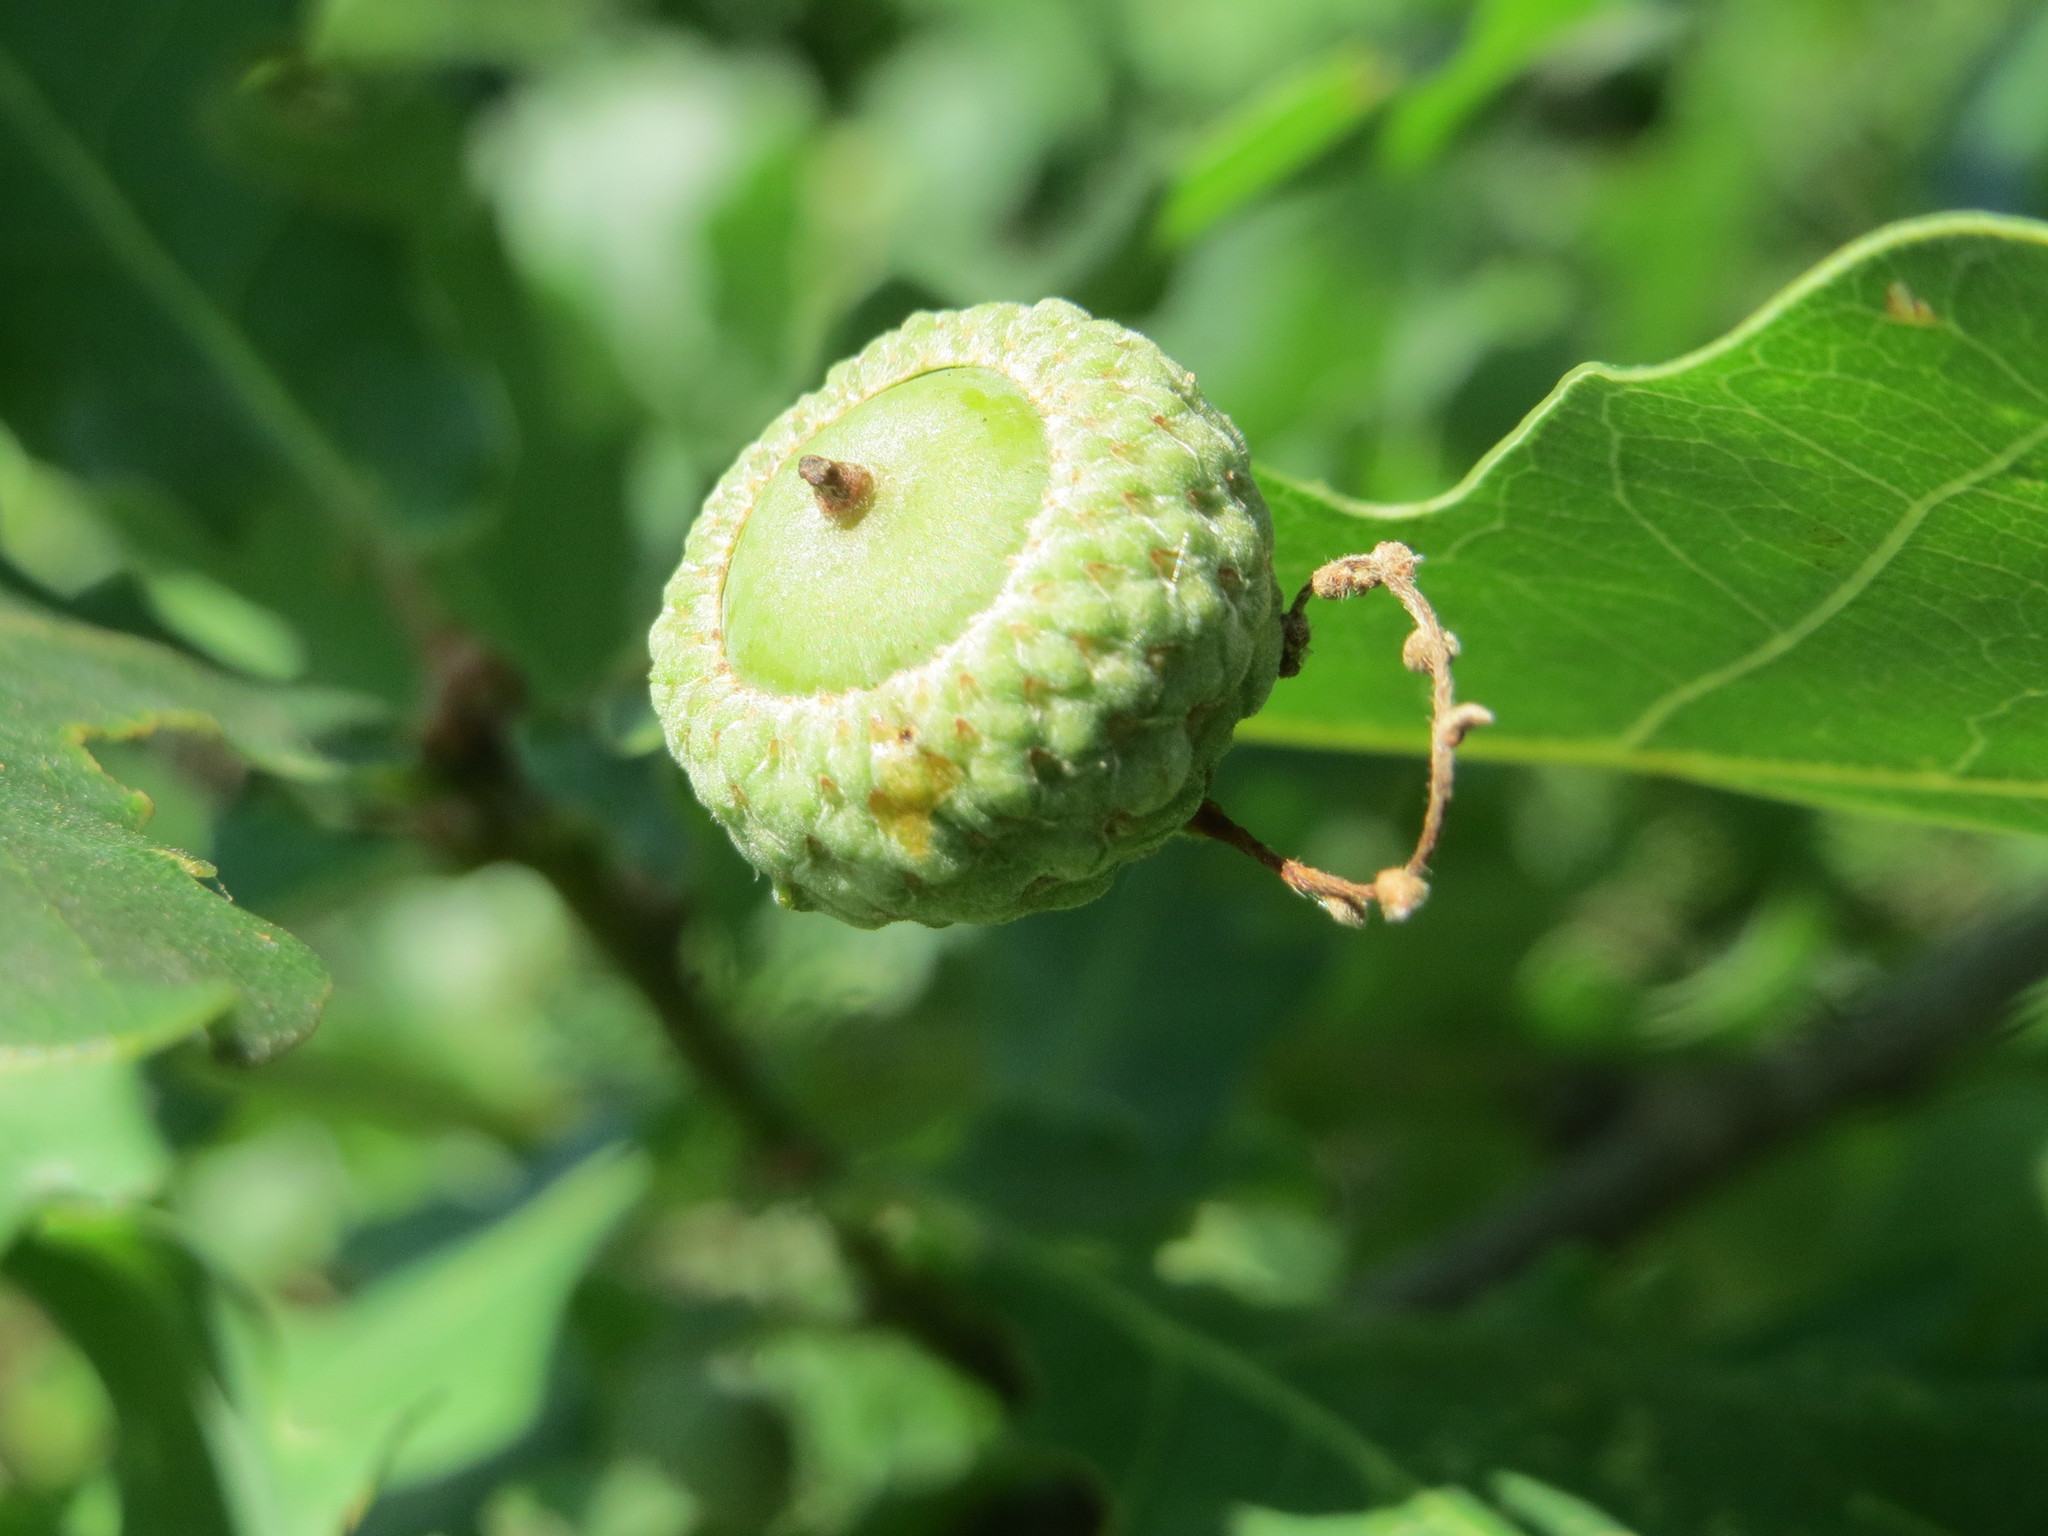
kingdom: Plantae
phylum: Tracheophyta
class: Magnoliopsida
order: Fagales
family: Fagaceae
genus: Quercus
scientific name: Quercus robur
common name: Pedunculate oak
